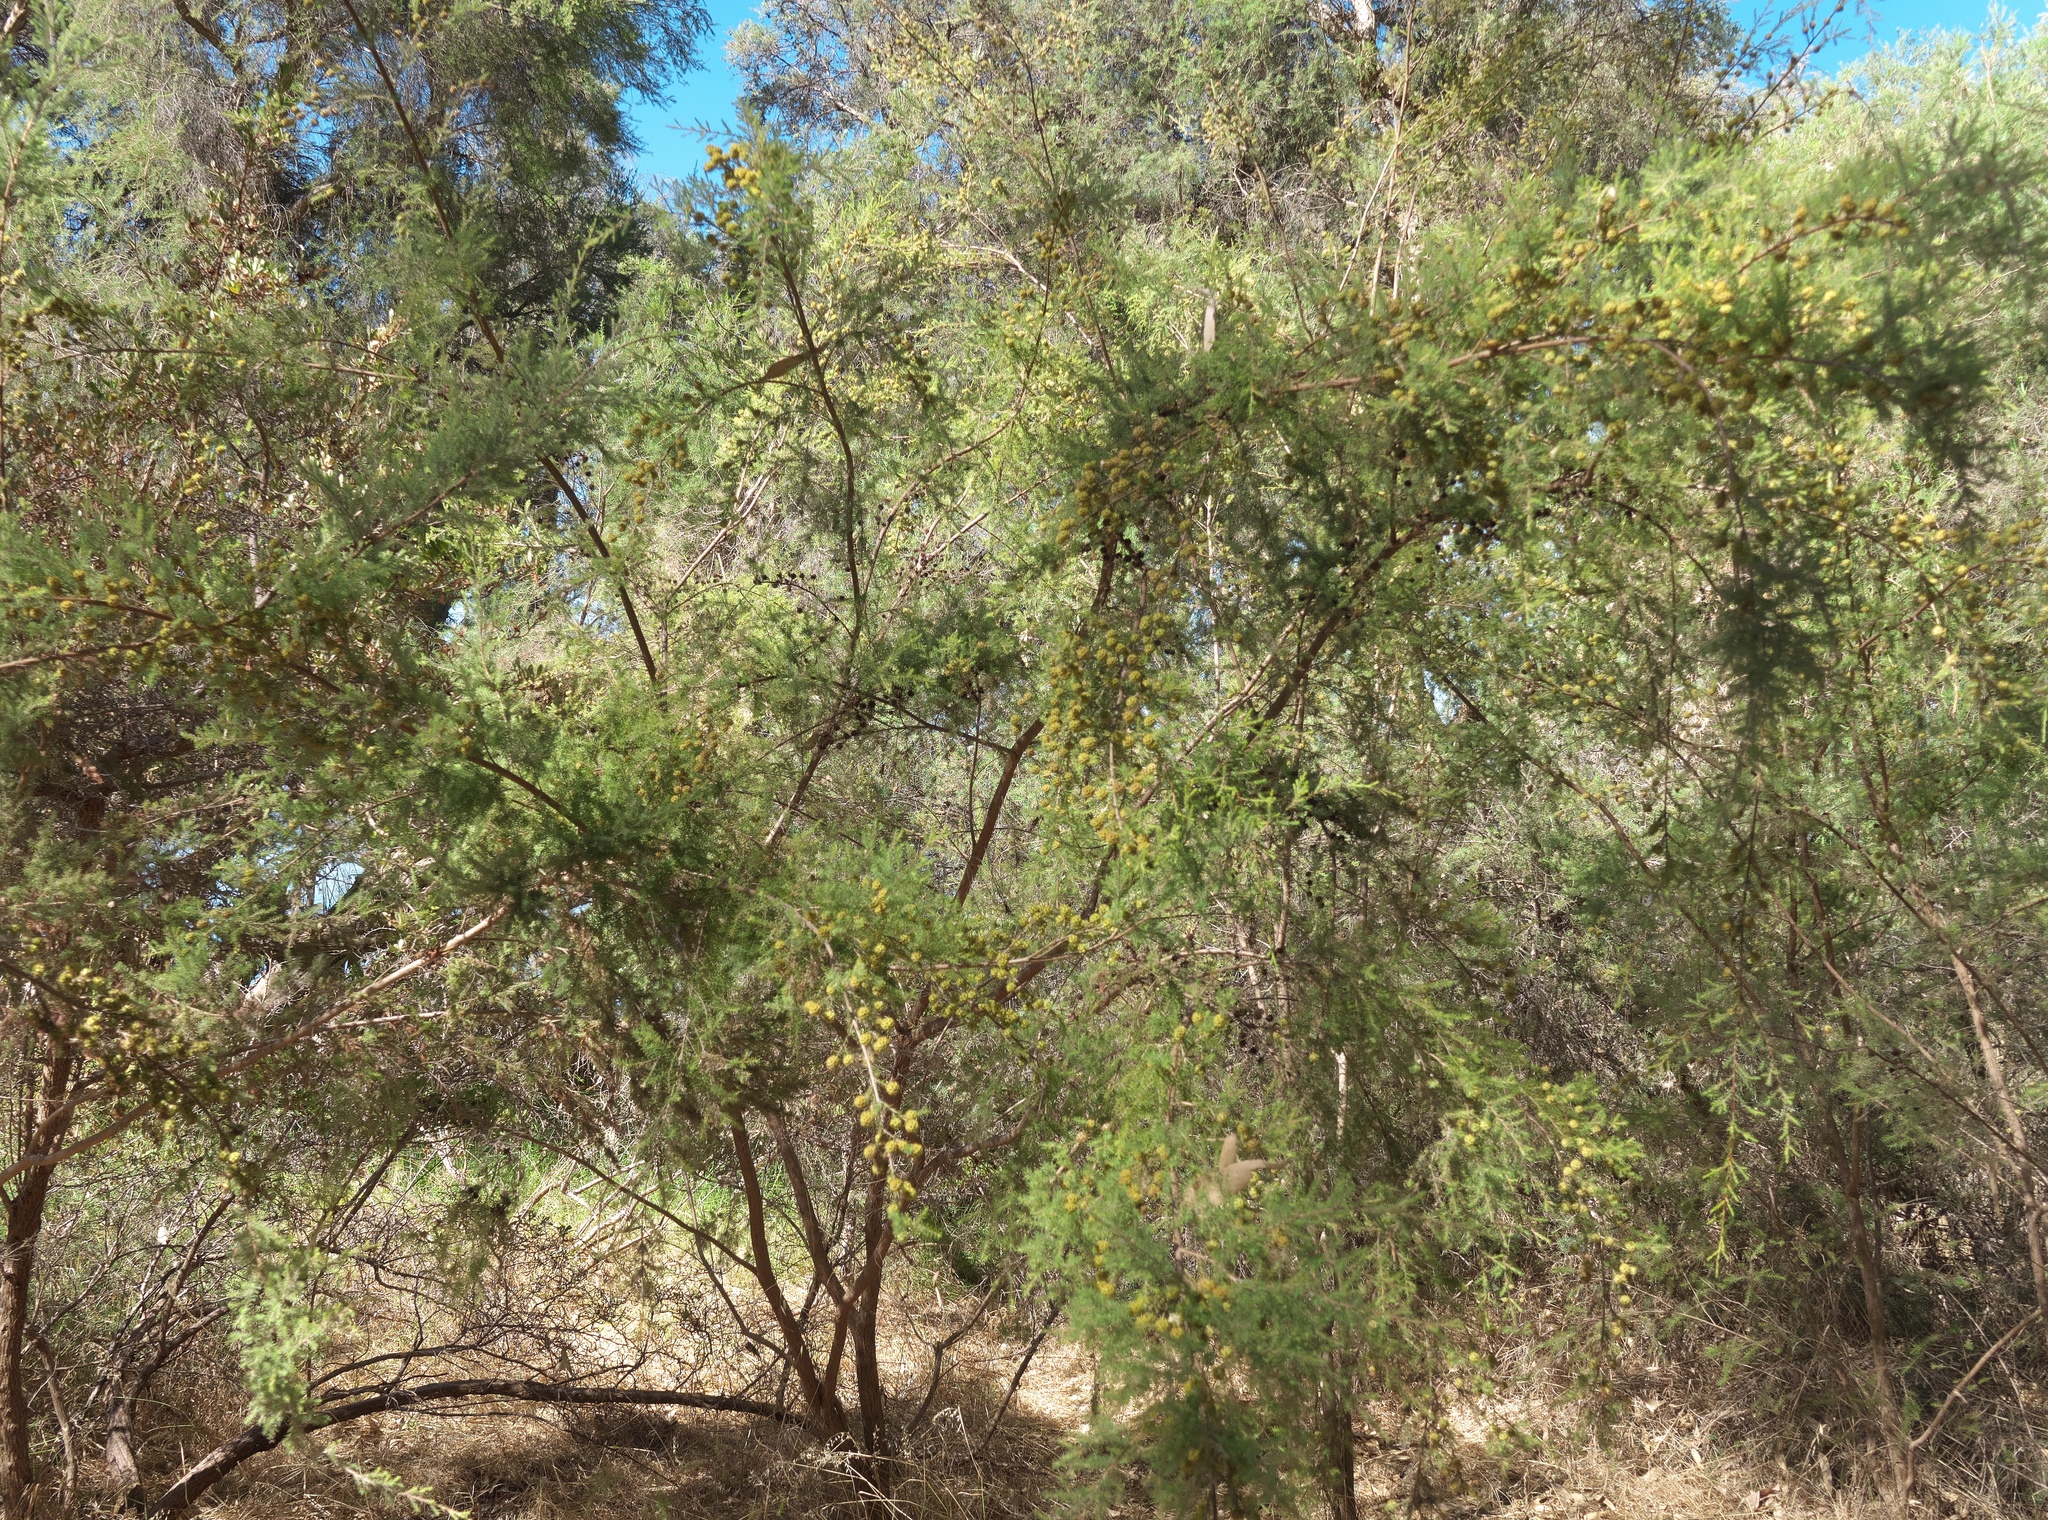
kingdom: Plantae
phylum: Tracheophyta
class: Magnoliopsida
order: Myrtales
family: Myrtaceae
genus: Kunzea
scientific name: Kunzea ericifolia
